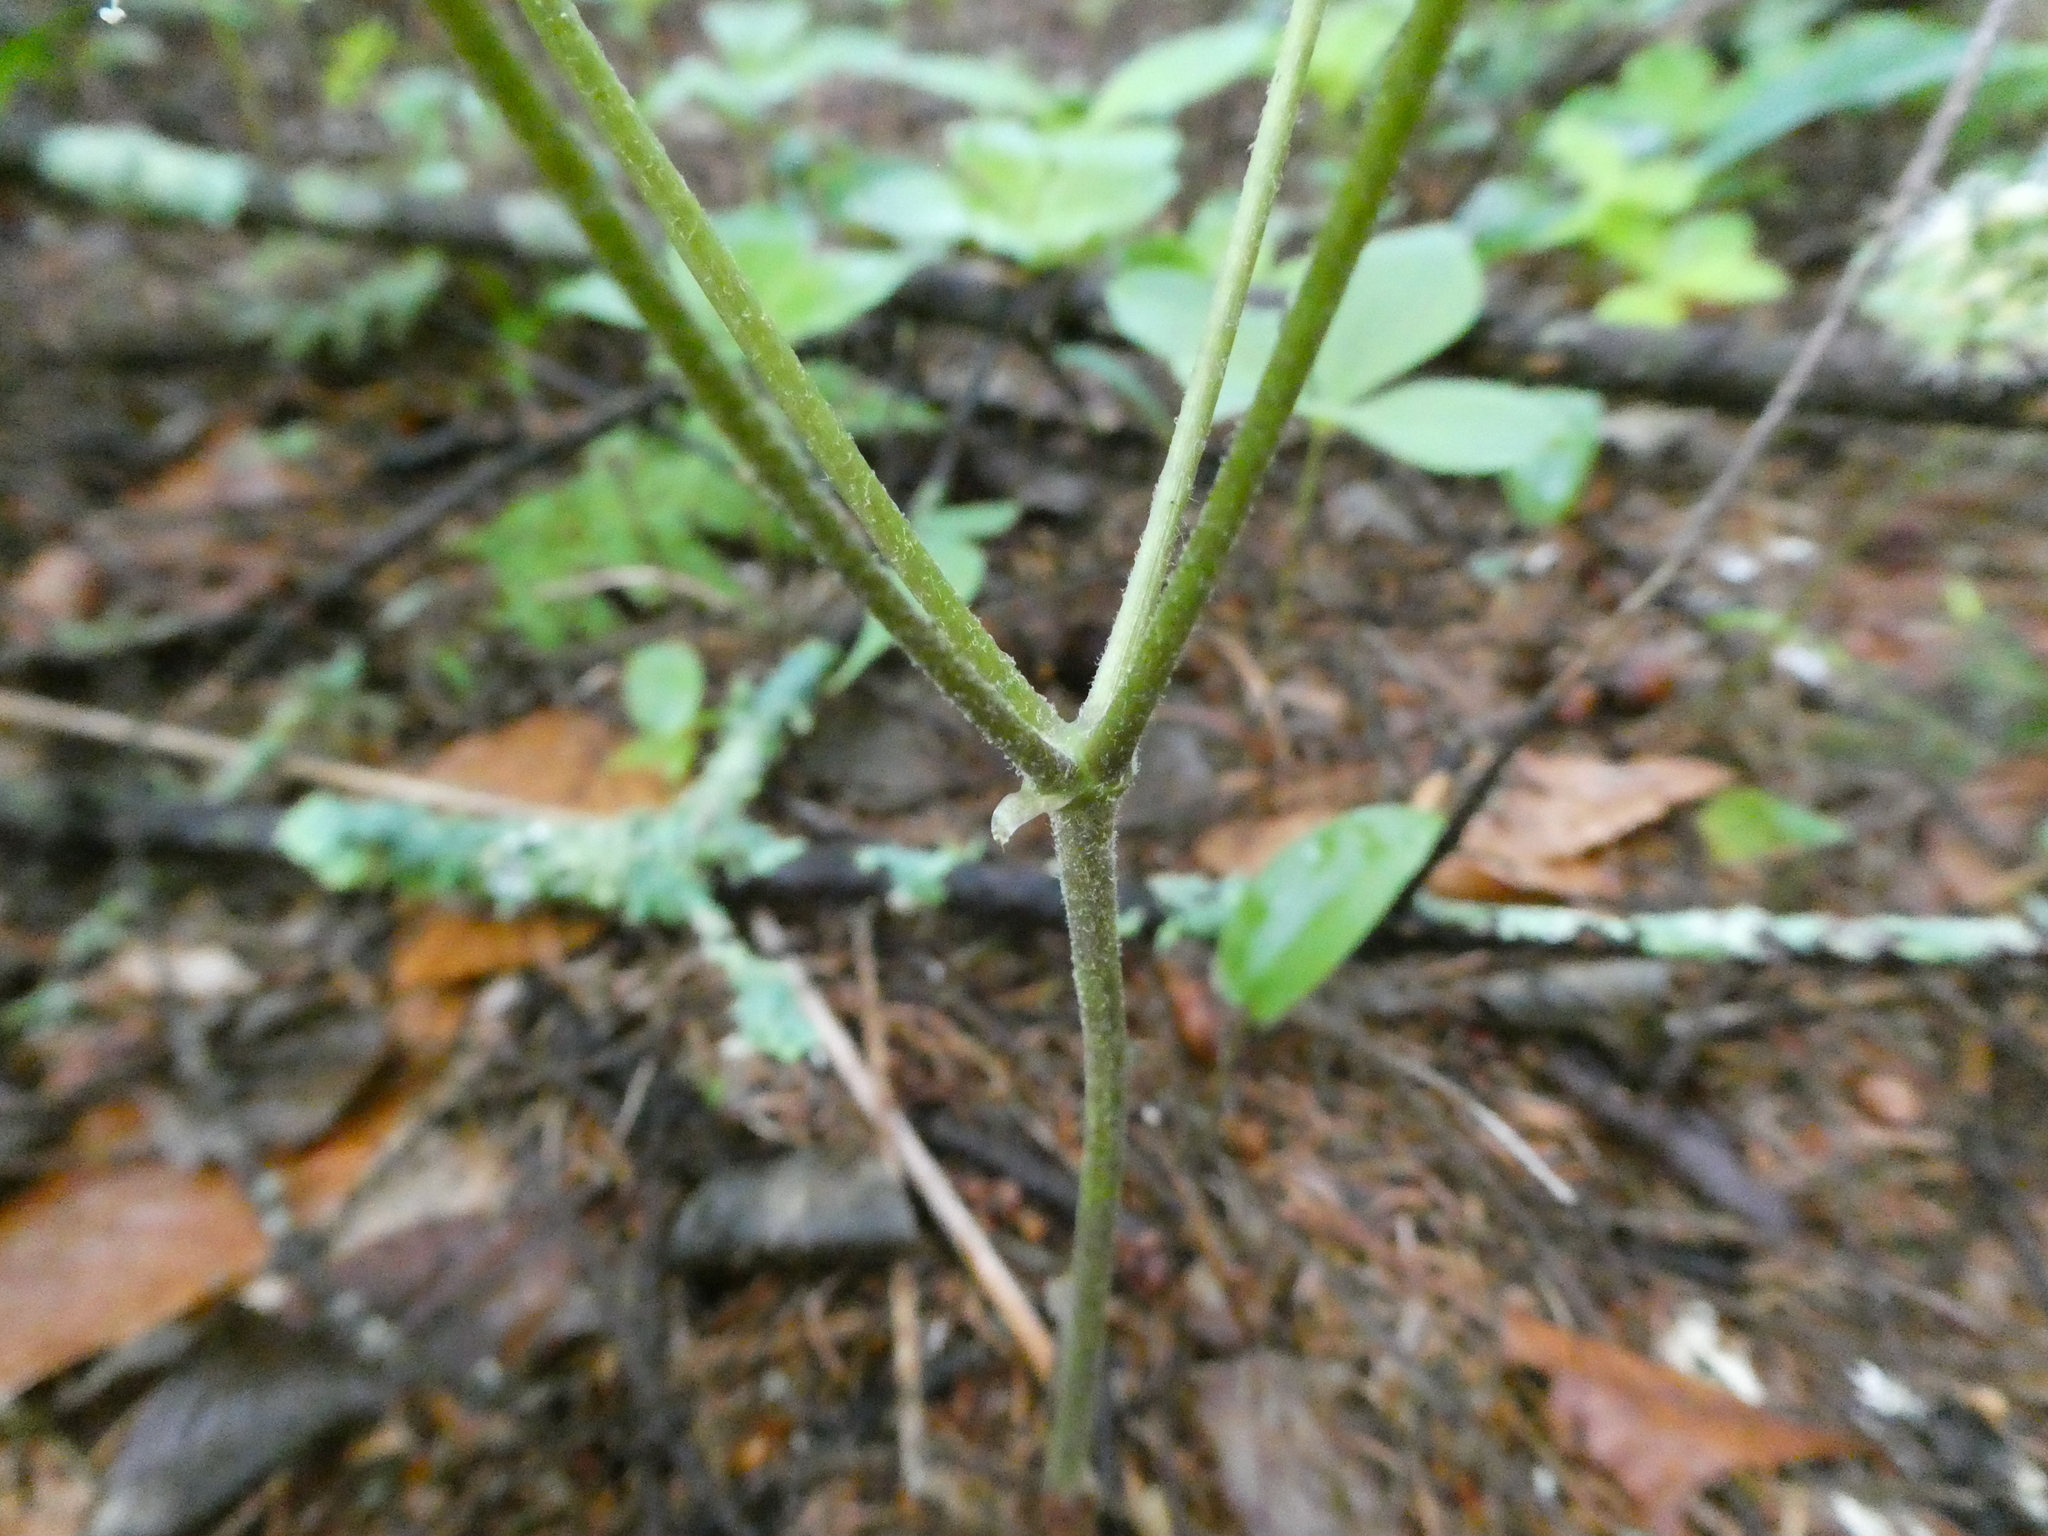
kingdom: Plantae
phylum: Tracheophyta
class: Magnoliopsida
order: Apiales
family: Araliaceae
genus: Aralia
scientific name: Aralia nudicaulis
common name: Wild sarsaparilla
